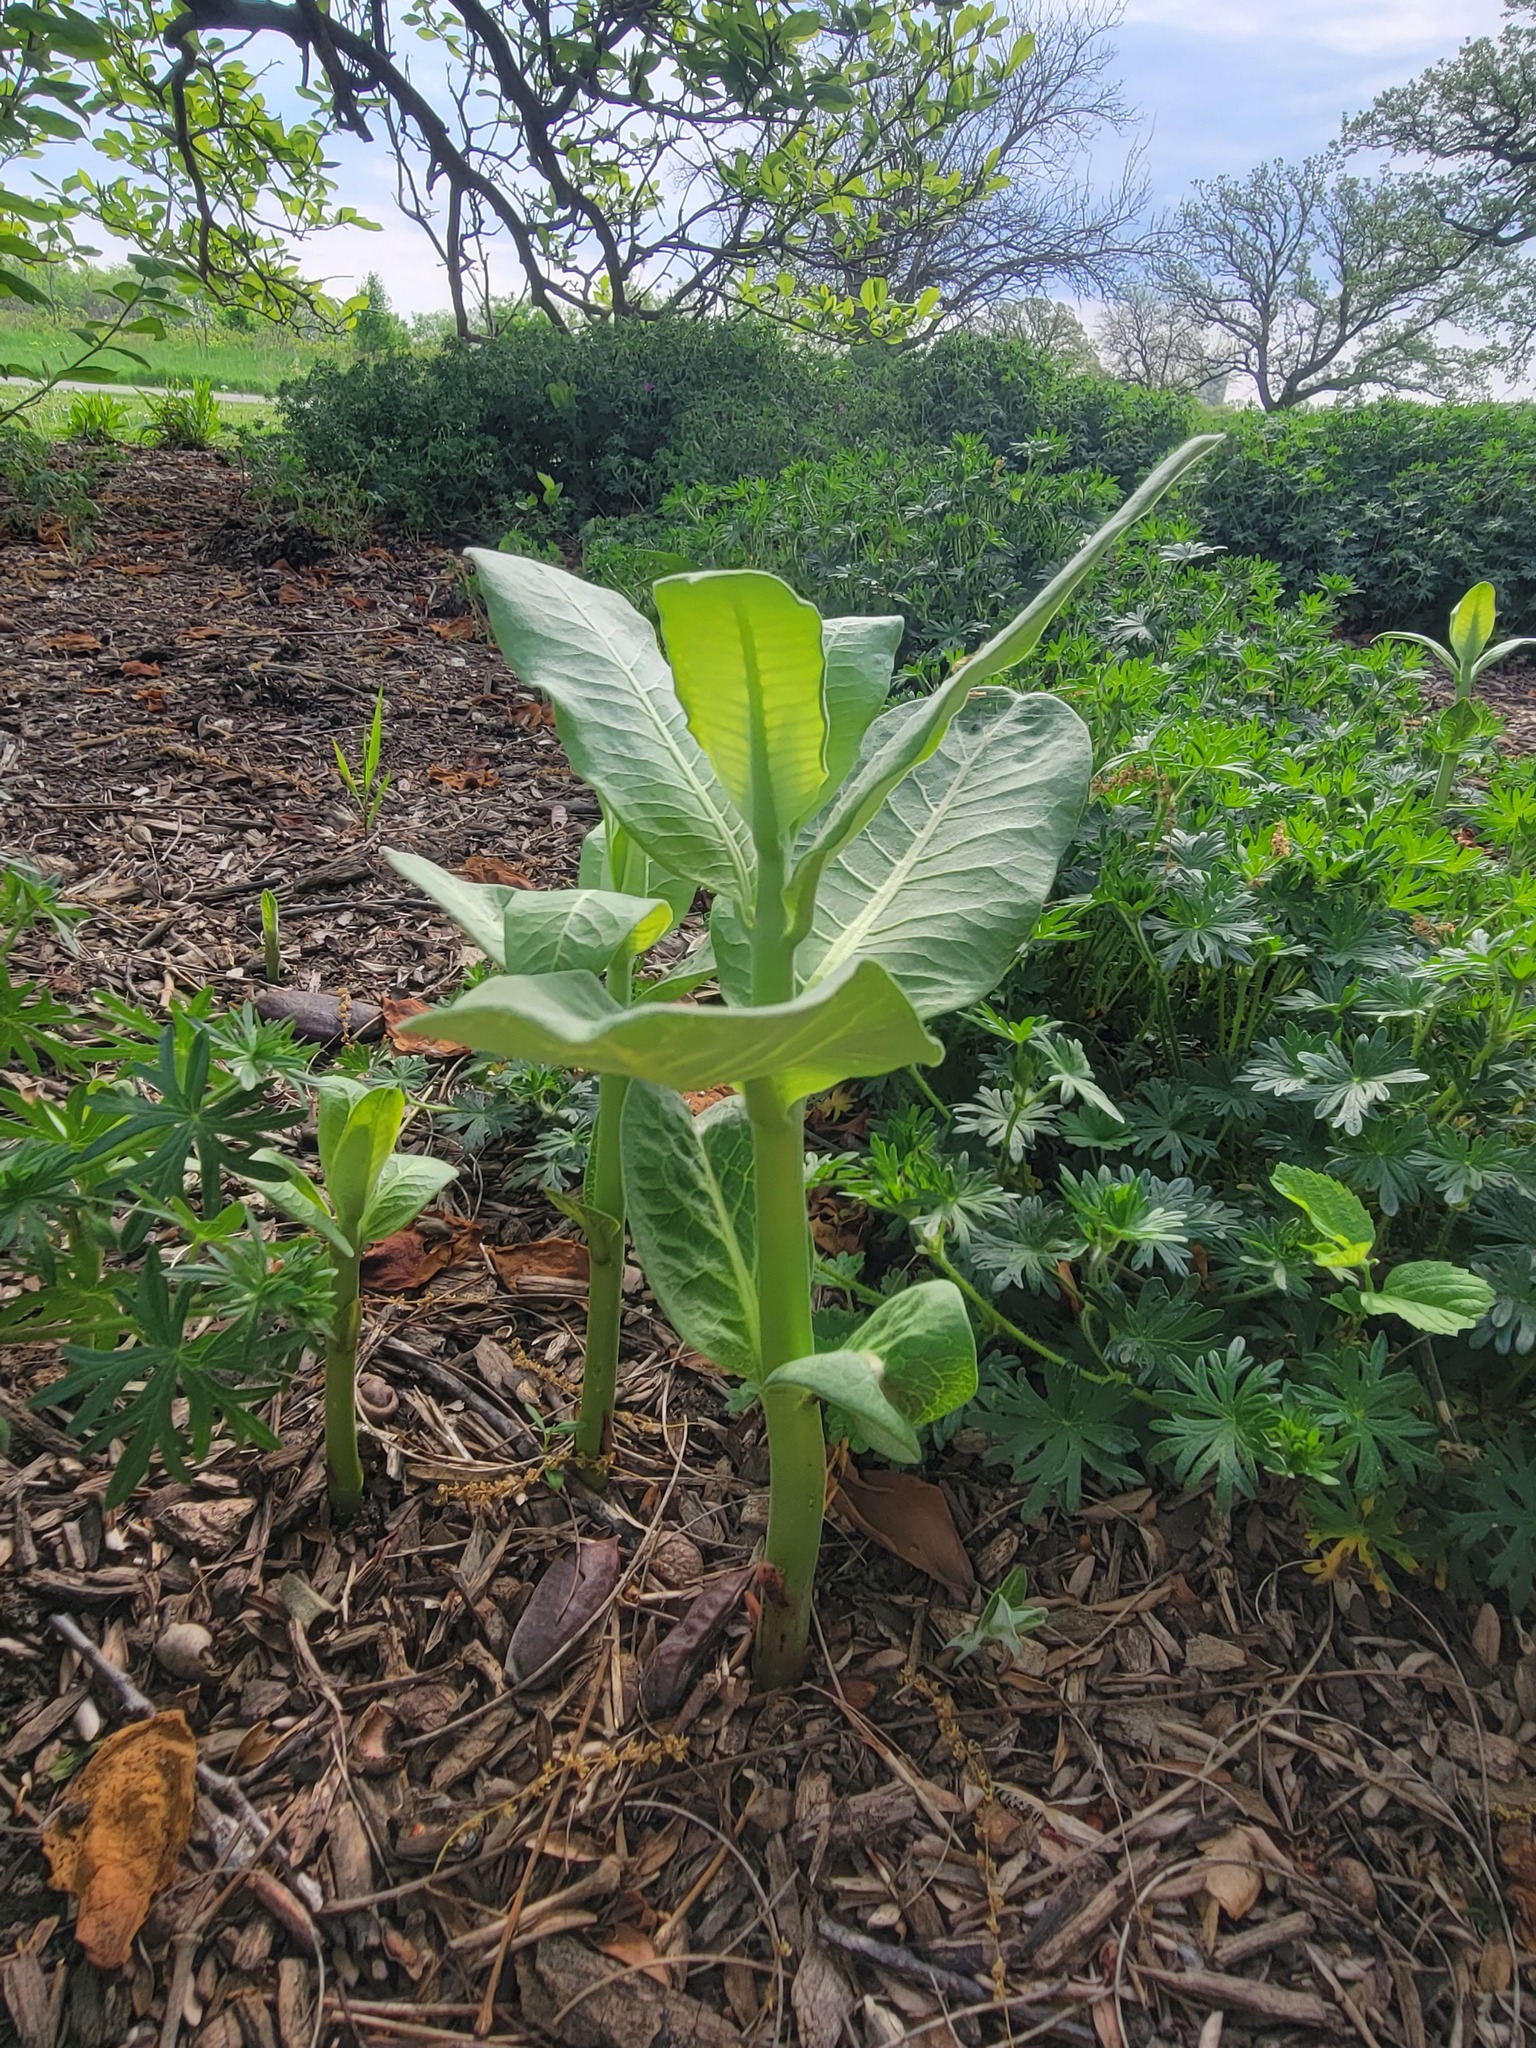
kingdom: Plantae
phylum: Tracheophyta
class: Magnoliopsida
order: Gentianales
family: Apocynaceae
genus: Asclepias
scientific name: Asclepias syriaca
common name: Common milkweed
